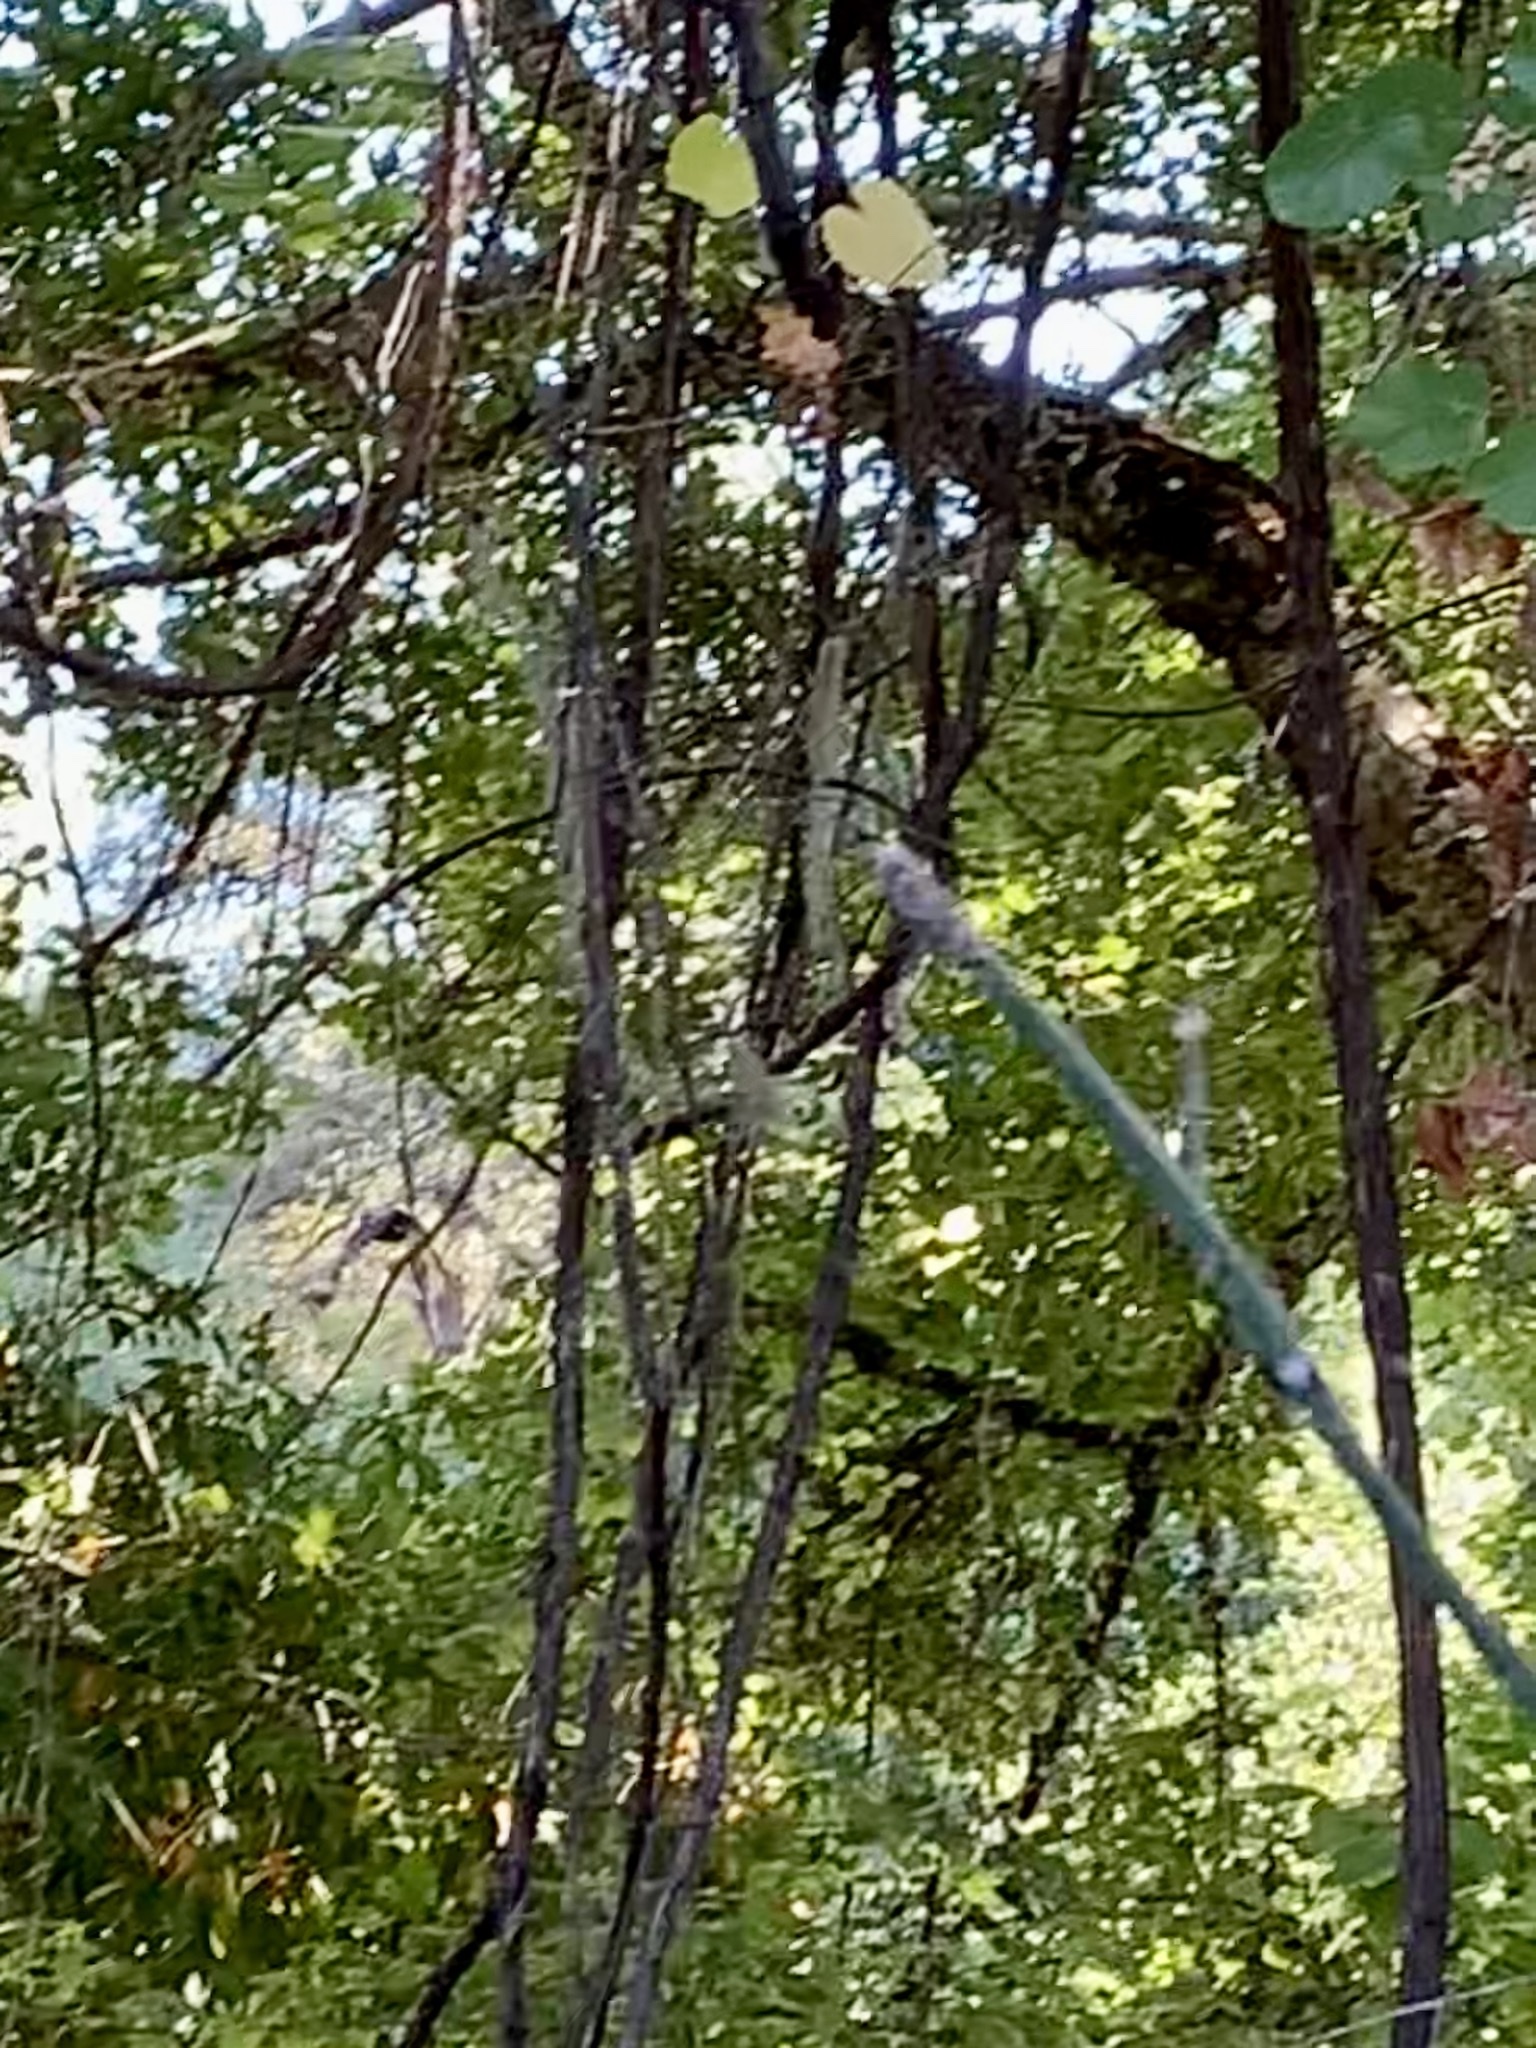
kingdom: Animalia
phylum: Chordata
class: Aves
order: Piciformes
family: Picidae
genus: Dryocopus
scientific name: Dryocopus pileatus
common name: Pileated woodpecker
